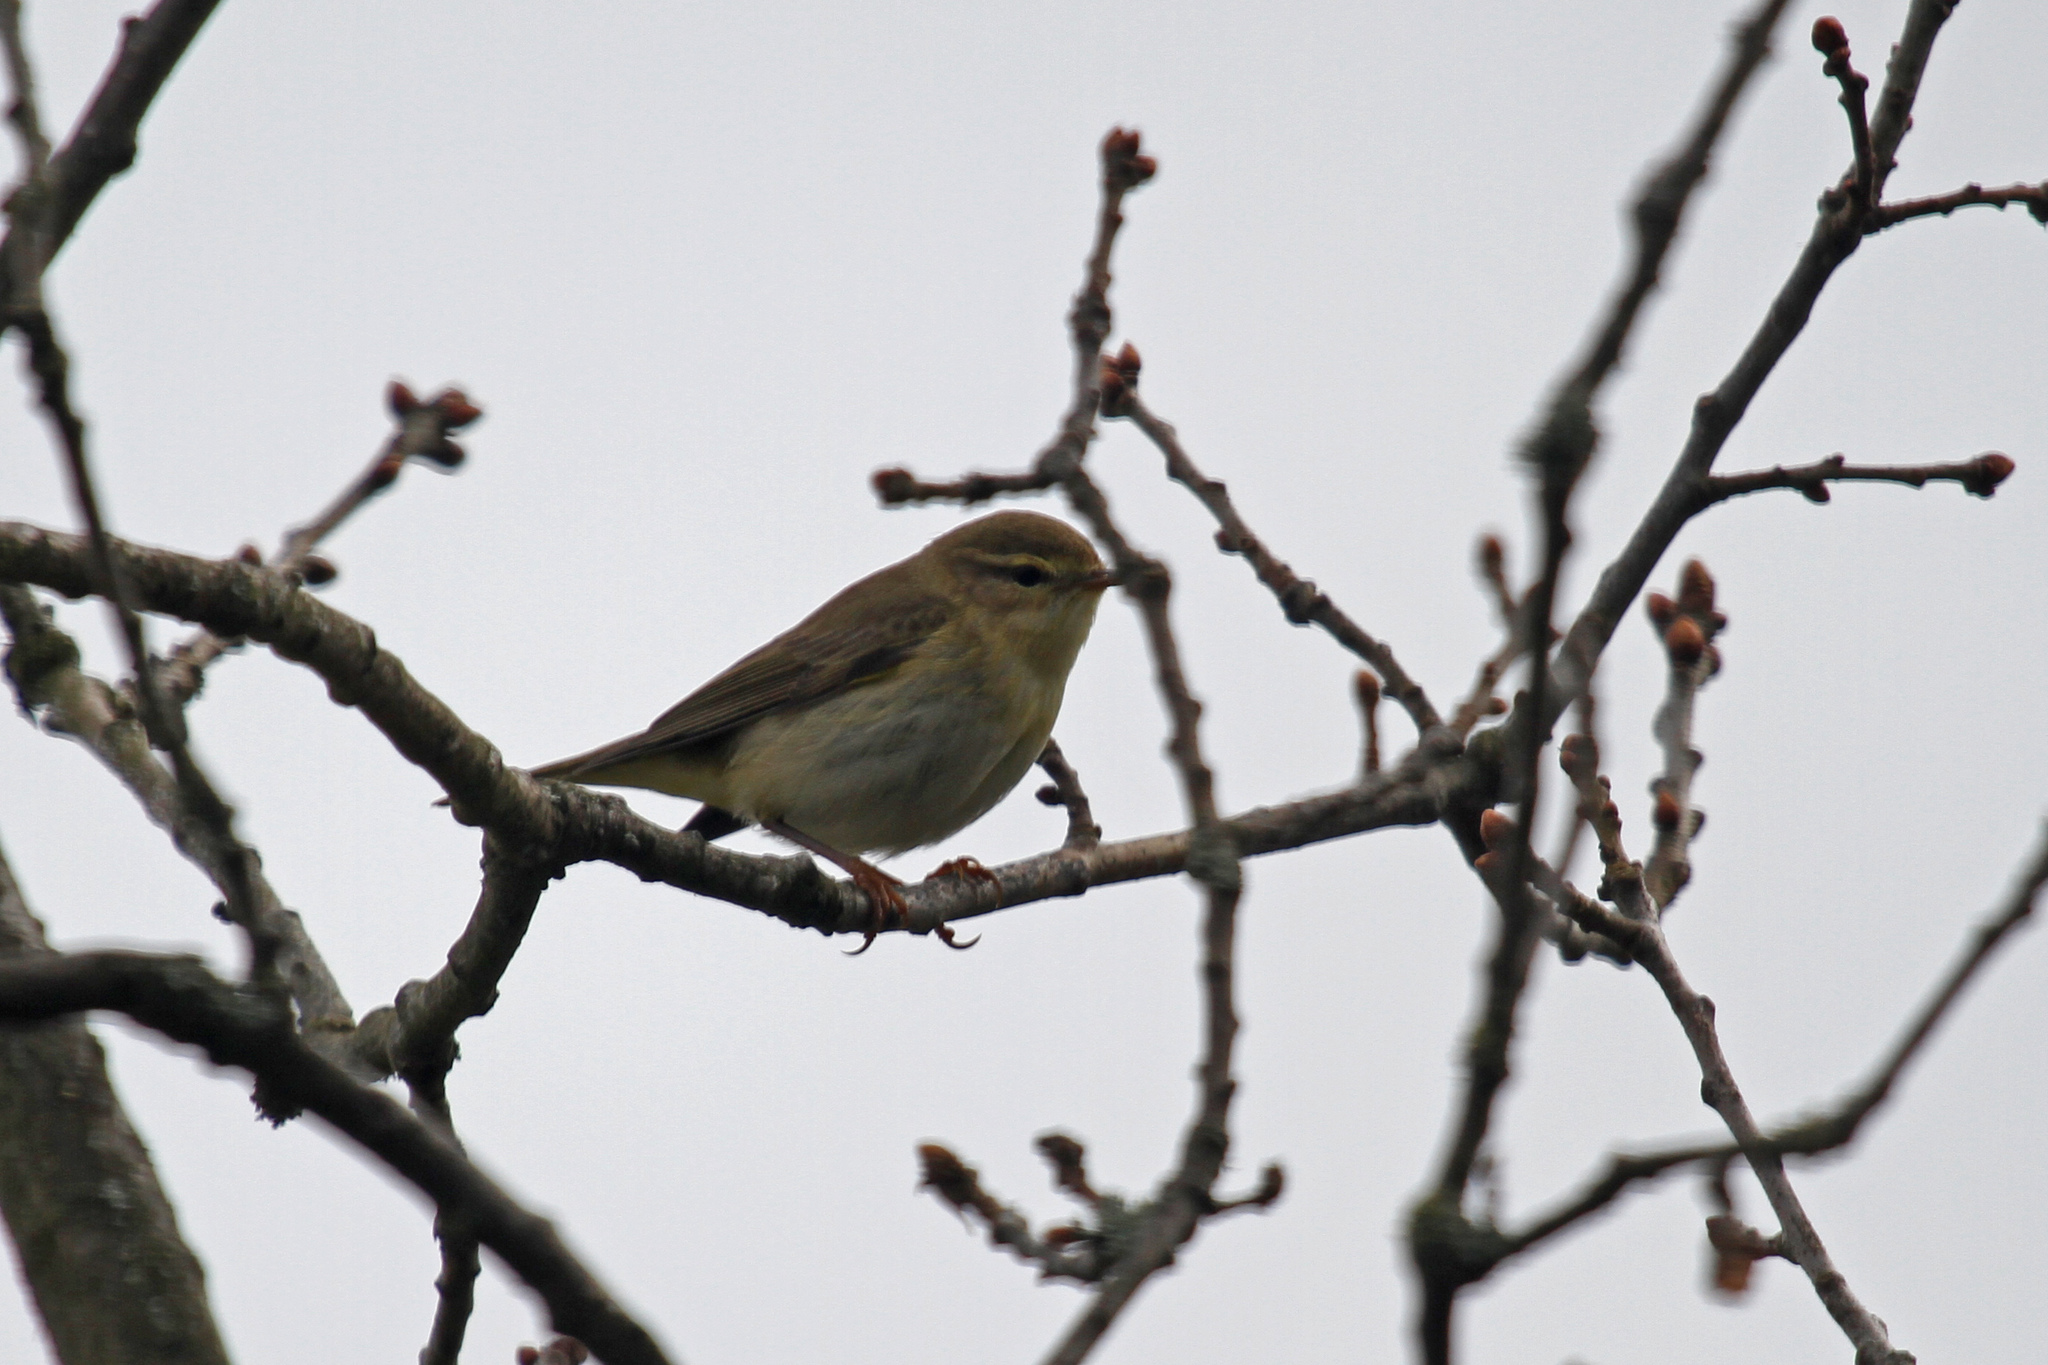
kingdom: Animalia
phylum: Chordata
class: Aves
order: Passeriformes
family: Phylloscopidae
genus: Phylloscopus
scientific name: Phylloscopus trochilus
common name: Willow warbler
